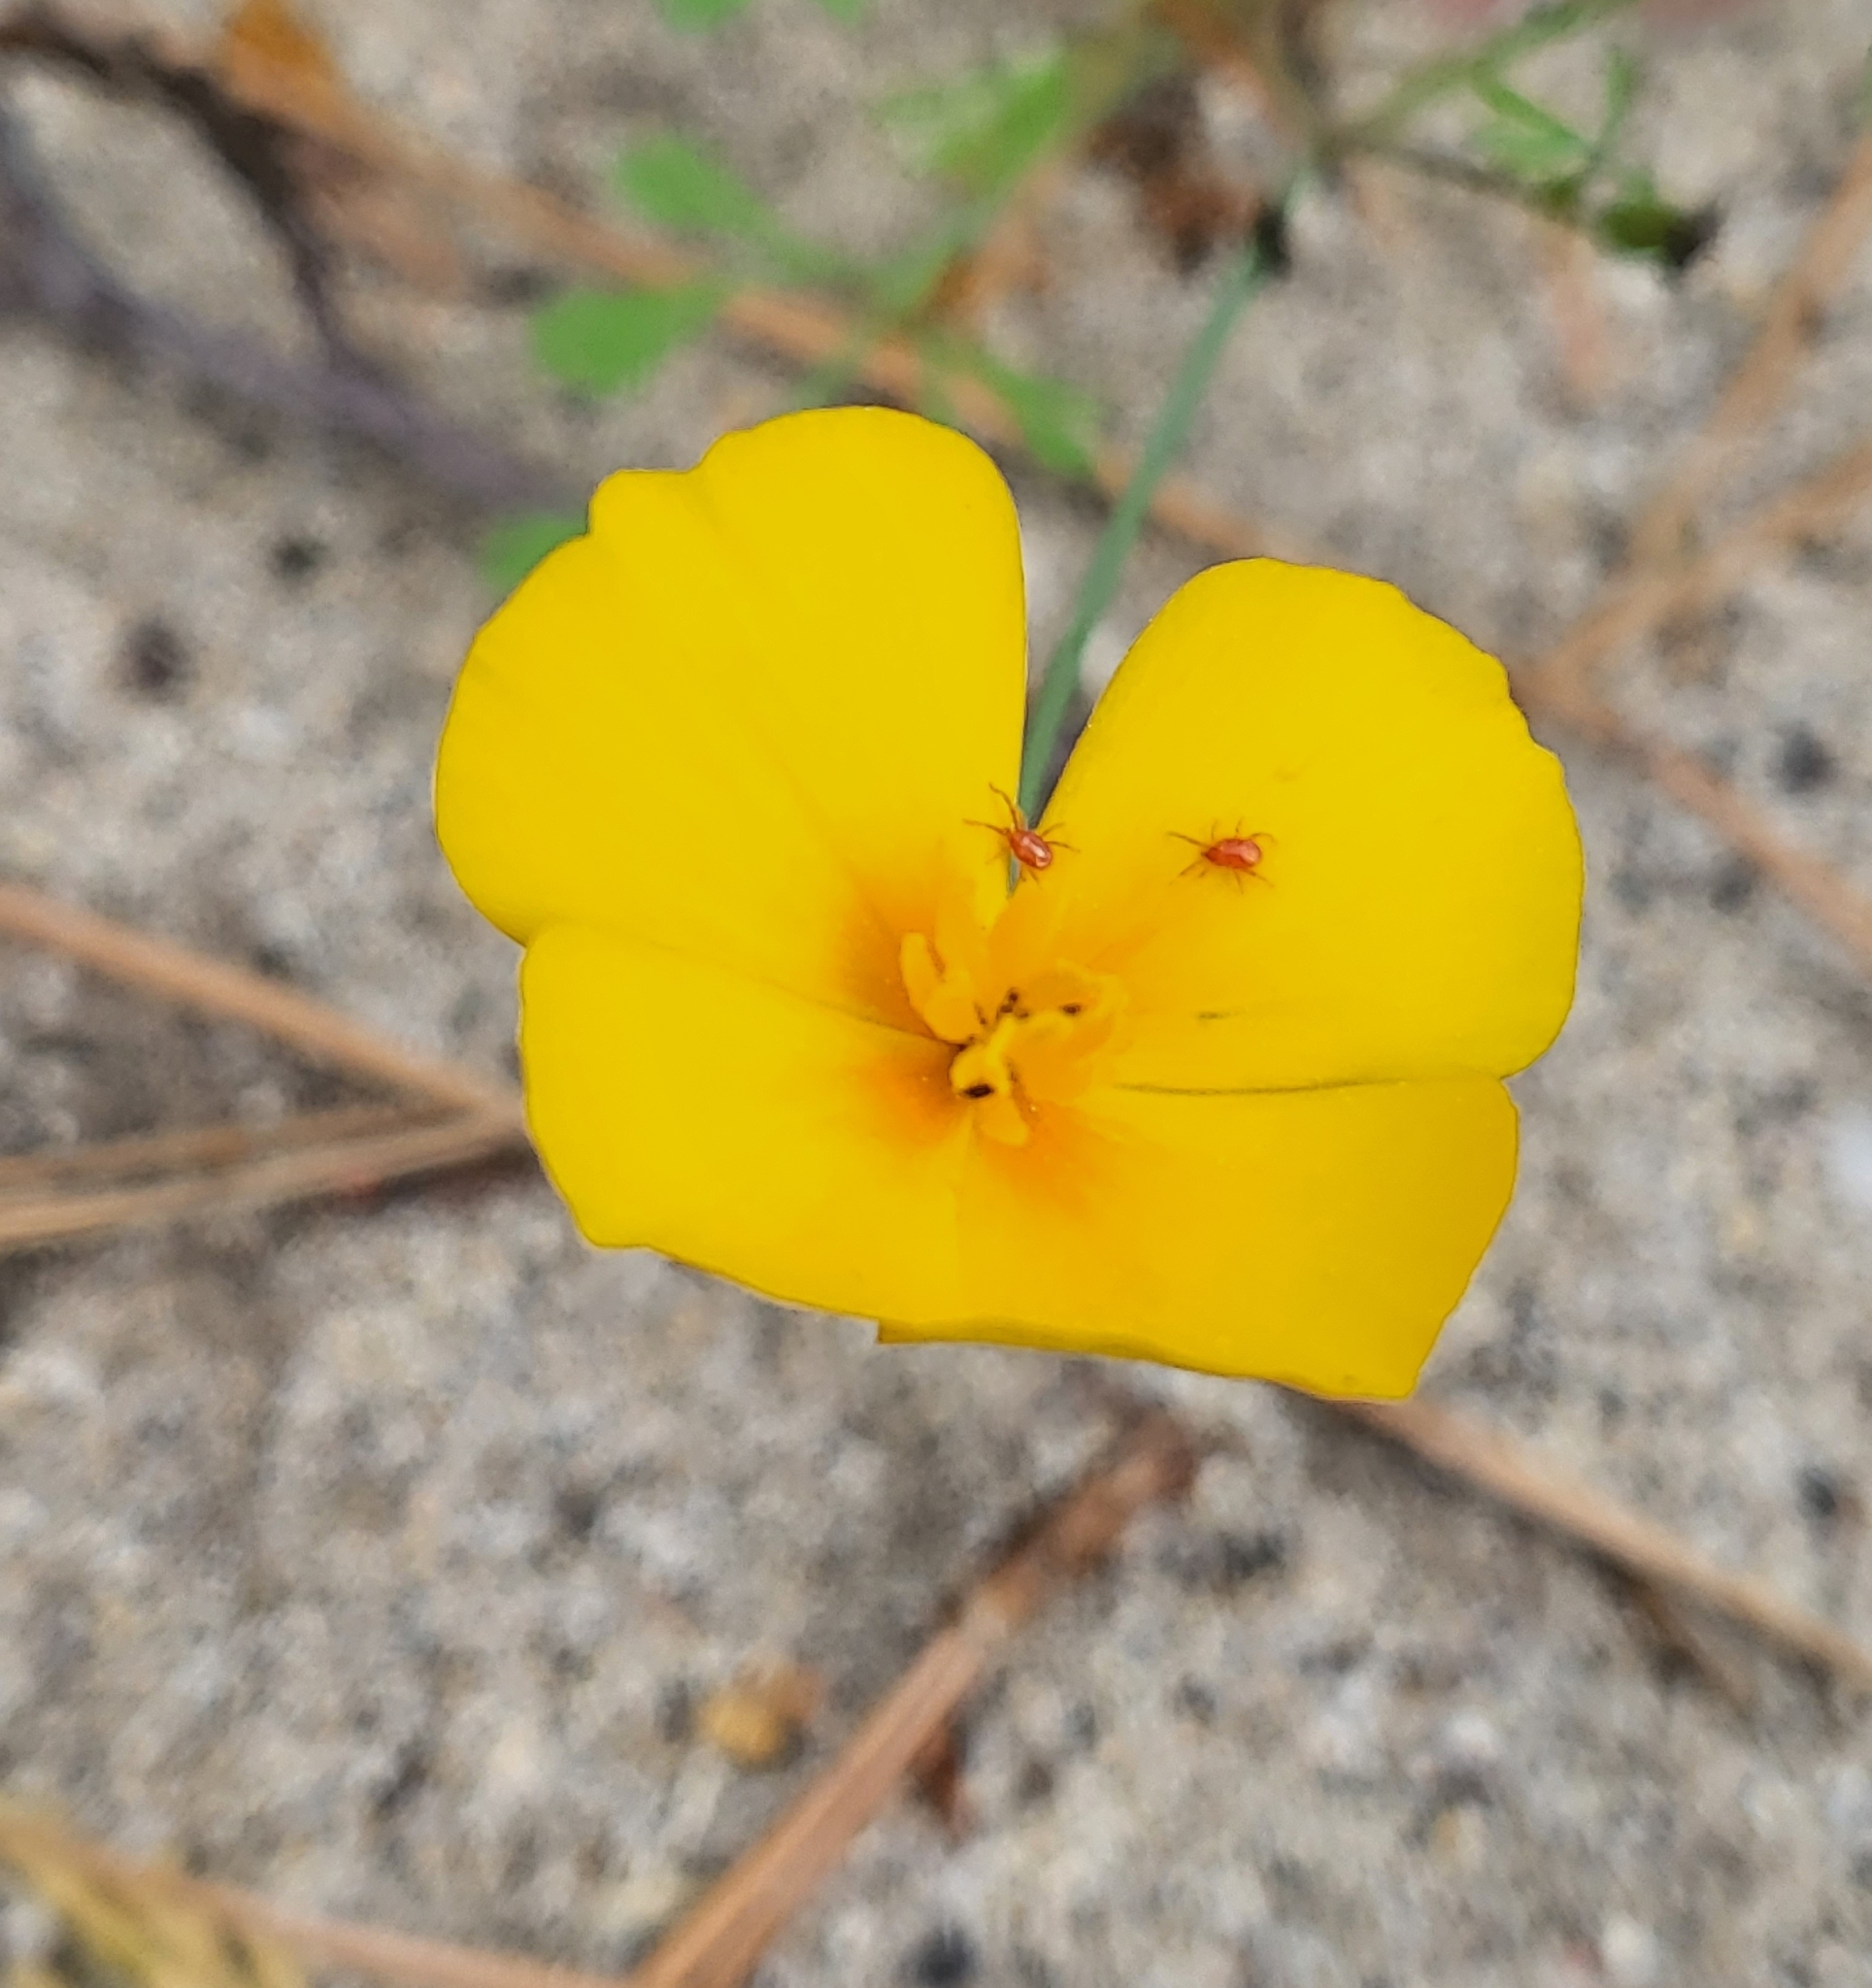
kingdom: Plantae
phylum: Tracheophyta
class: Magnoliopsida
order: Ranunculales
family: Papaveraceae
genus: Eschscholzia
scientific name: Eschscholzia caespitosa
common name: Tufted california-poppy
